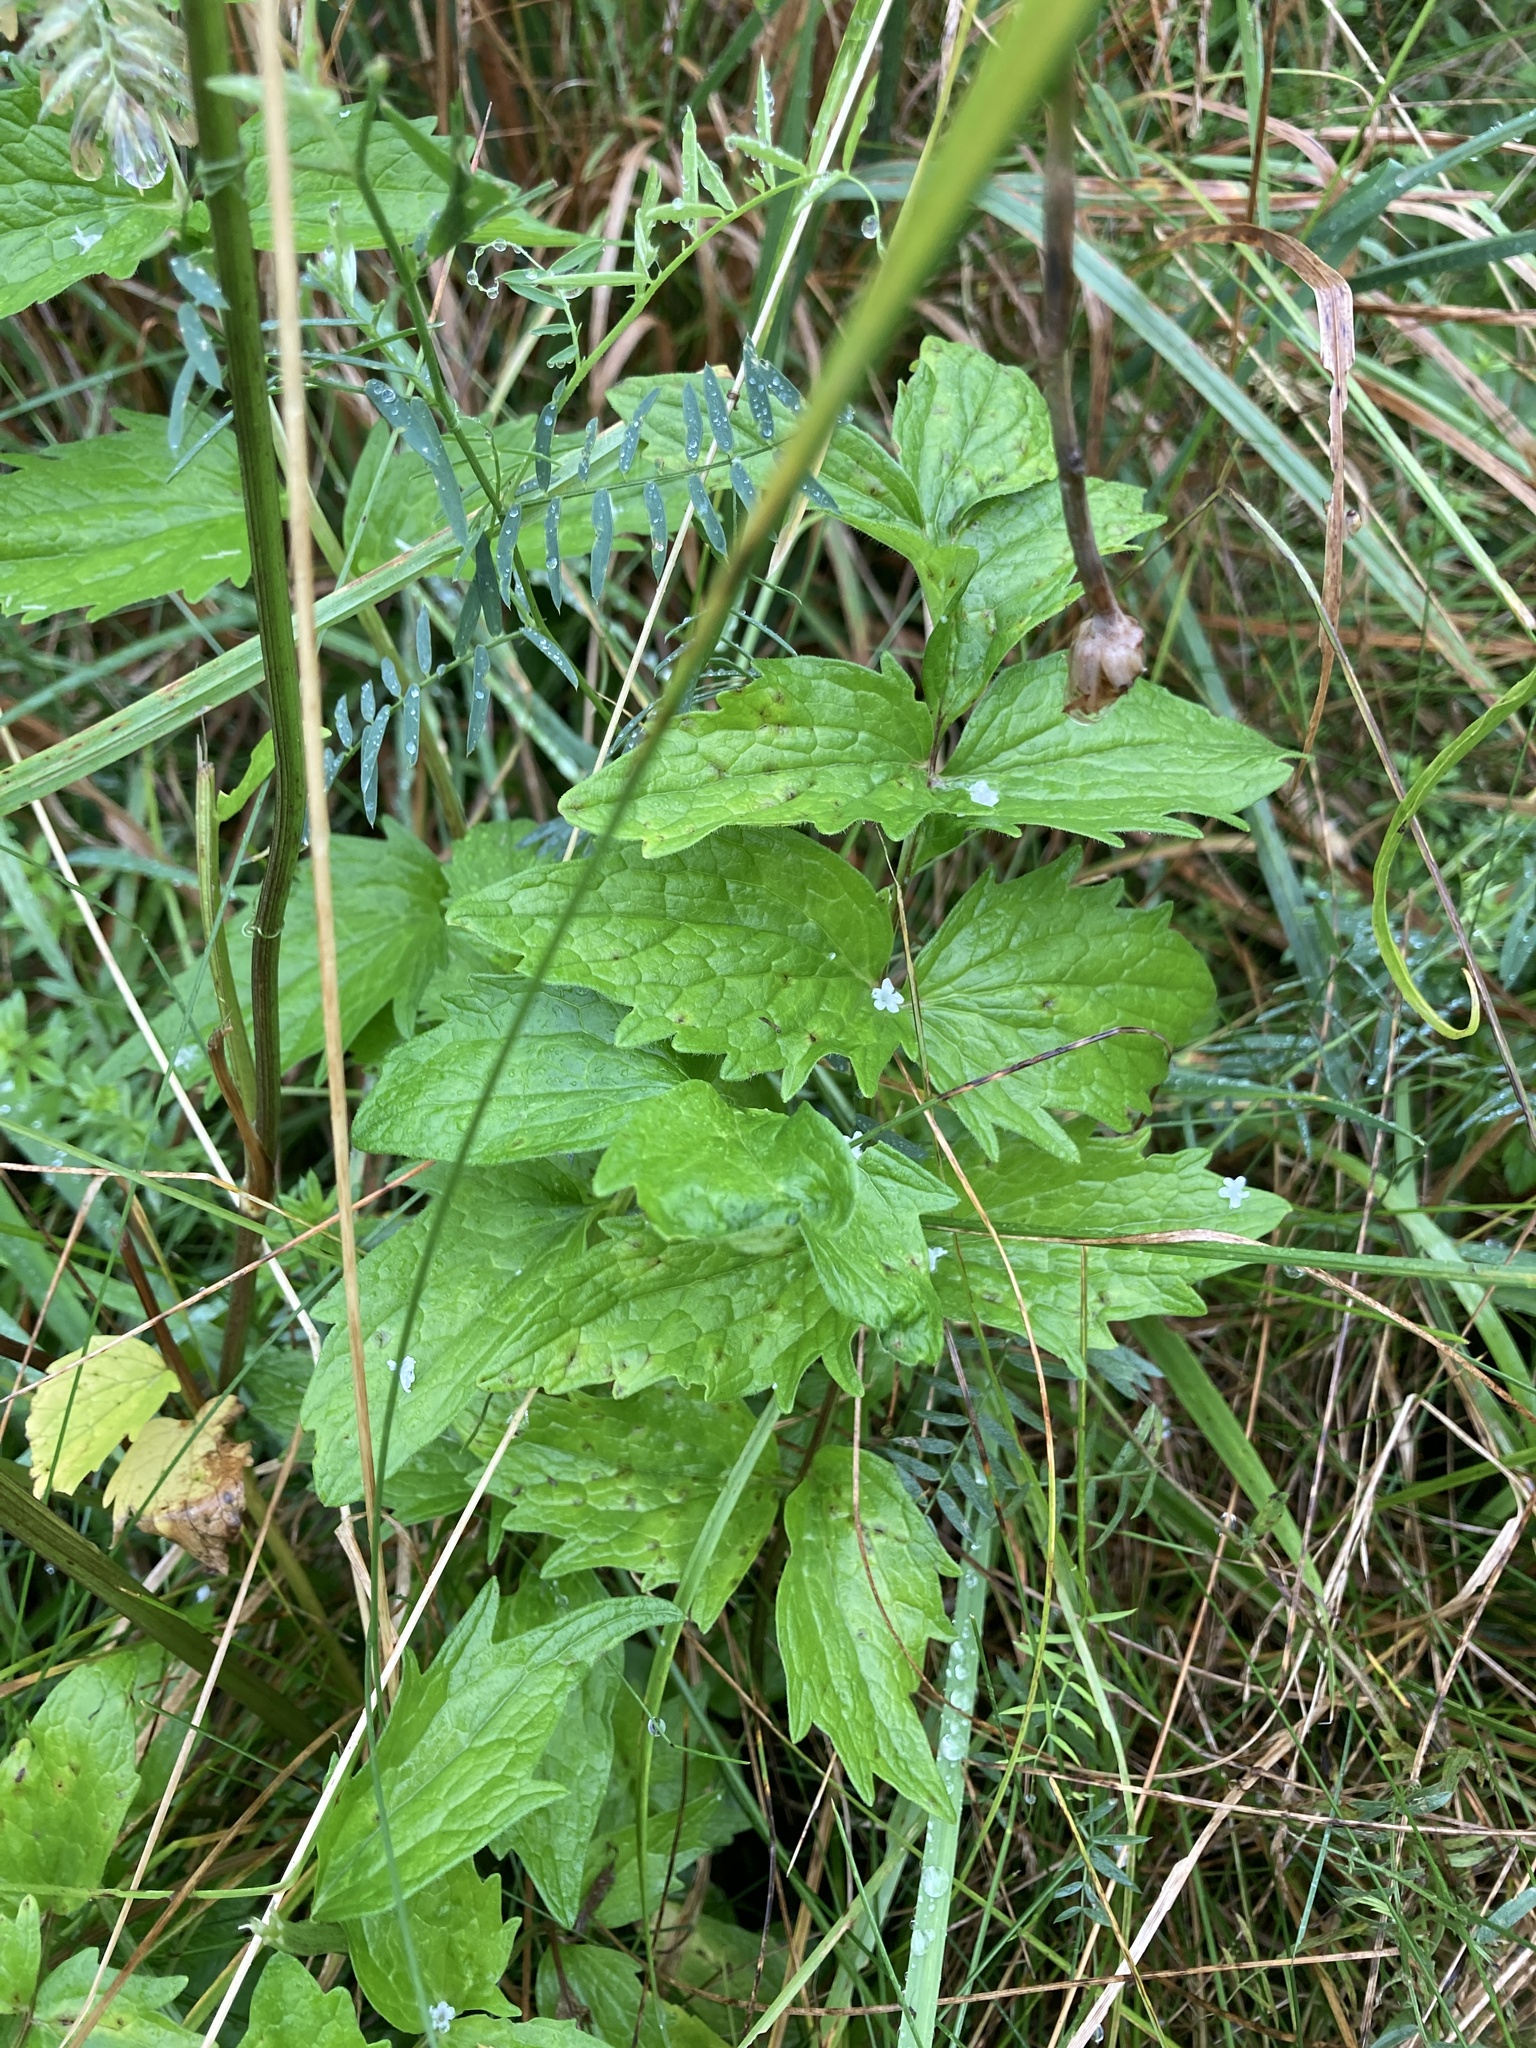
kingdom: Plantae
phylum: Tracheophyta
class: Magnoliopsida
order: Dipsacales
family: Caprifoliaceae
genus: Valeriana
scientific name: Valeriana officinalis
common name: Common valerian
